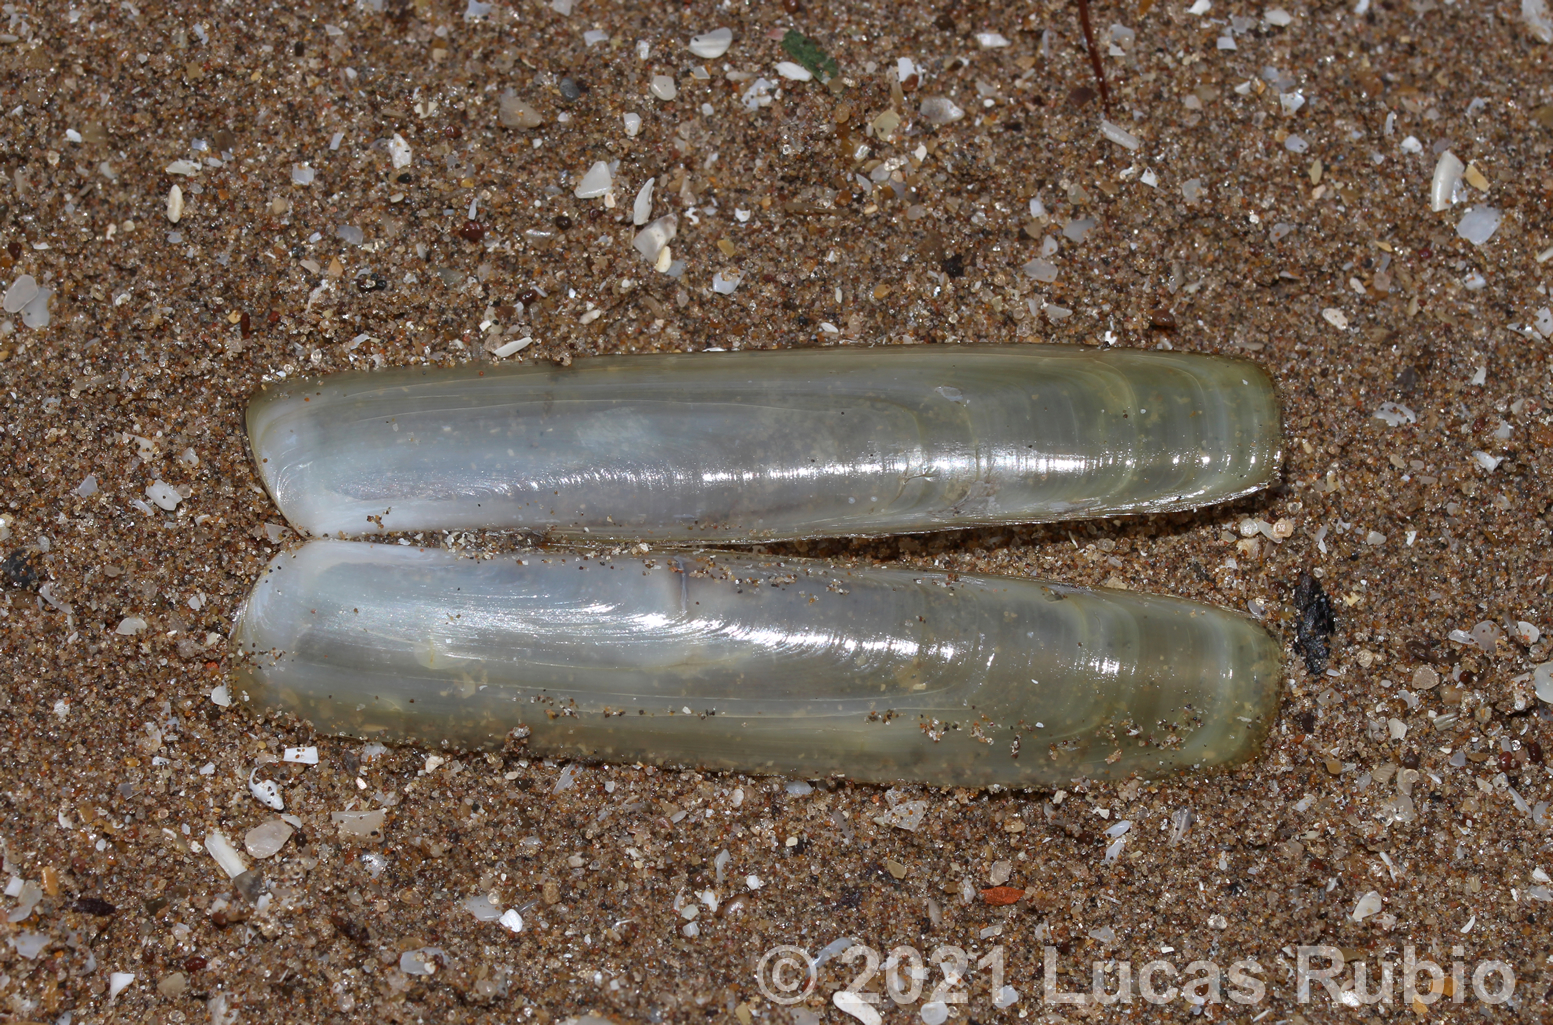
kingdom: Animalia
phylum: Mollusca
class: Bivalvia
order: Adapedonta
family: Solenidae
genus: Solen
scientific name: Solen thuelchus
